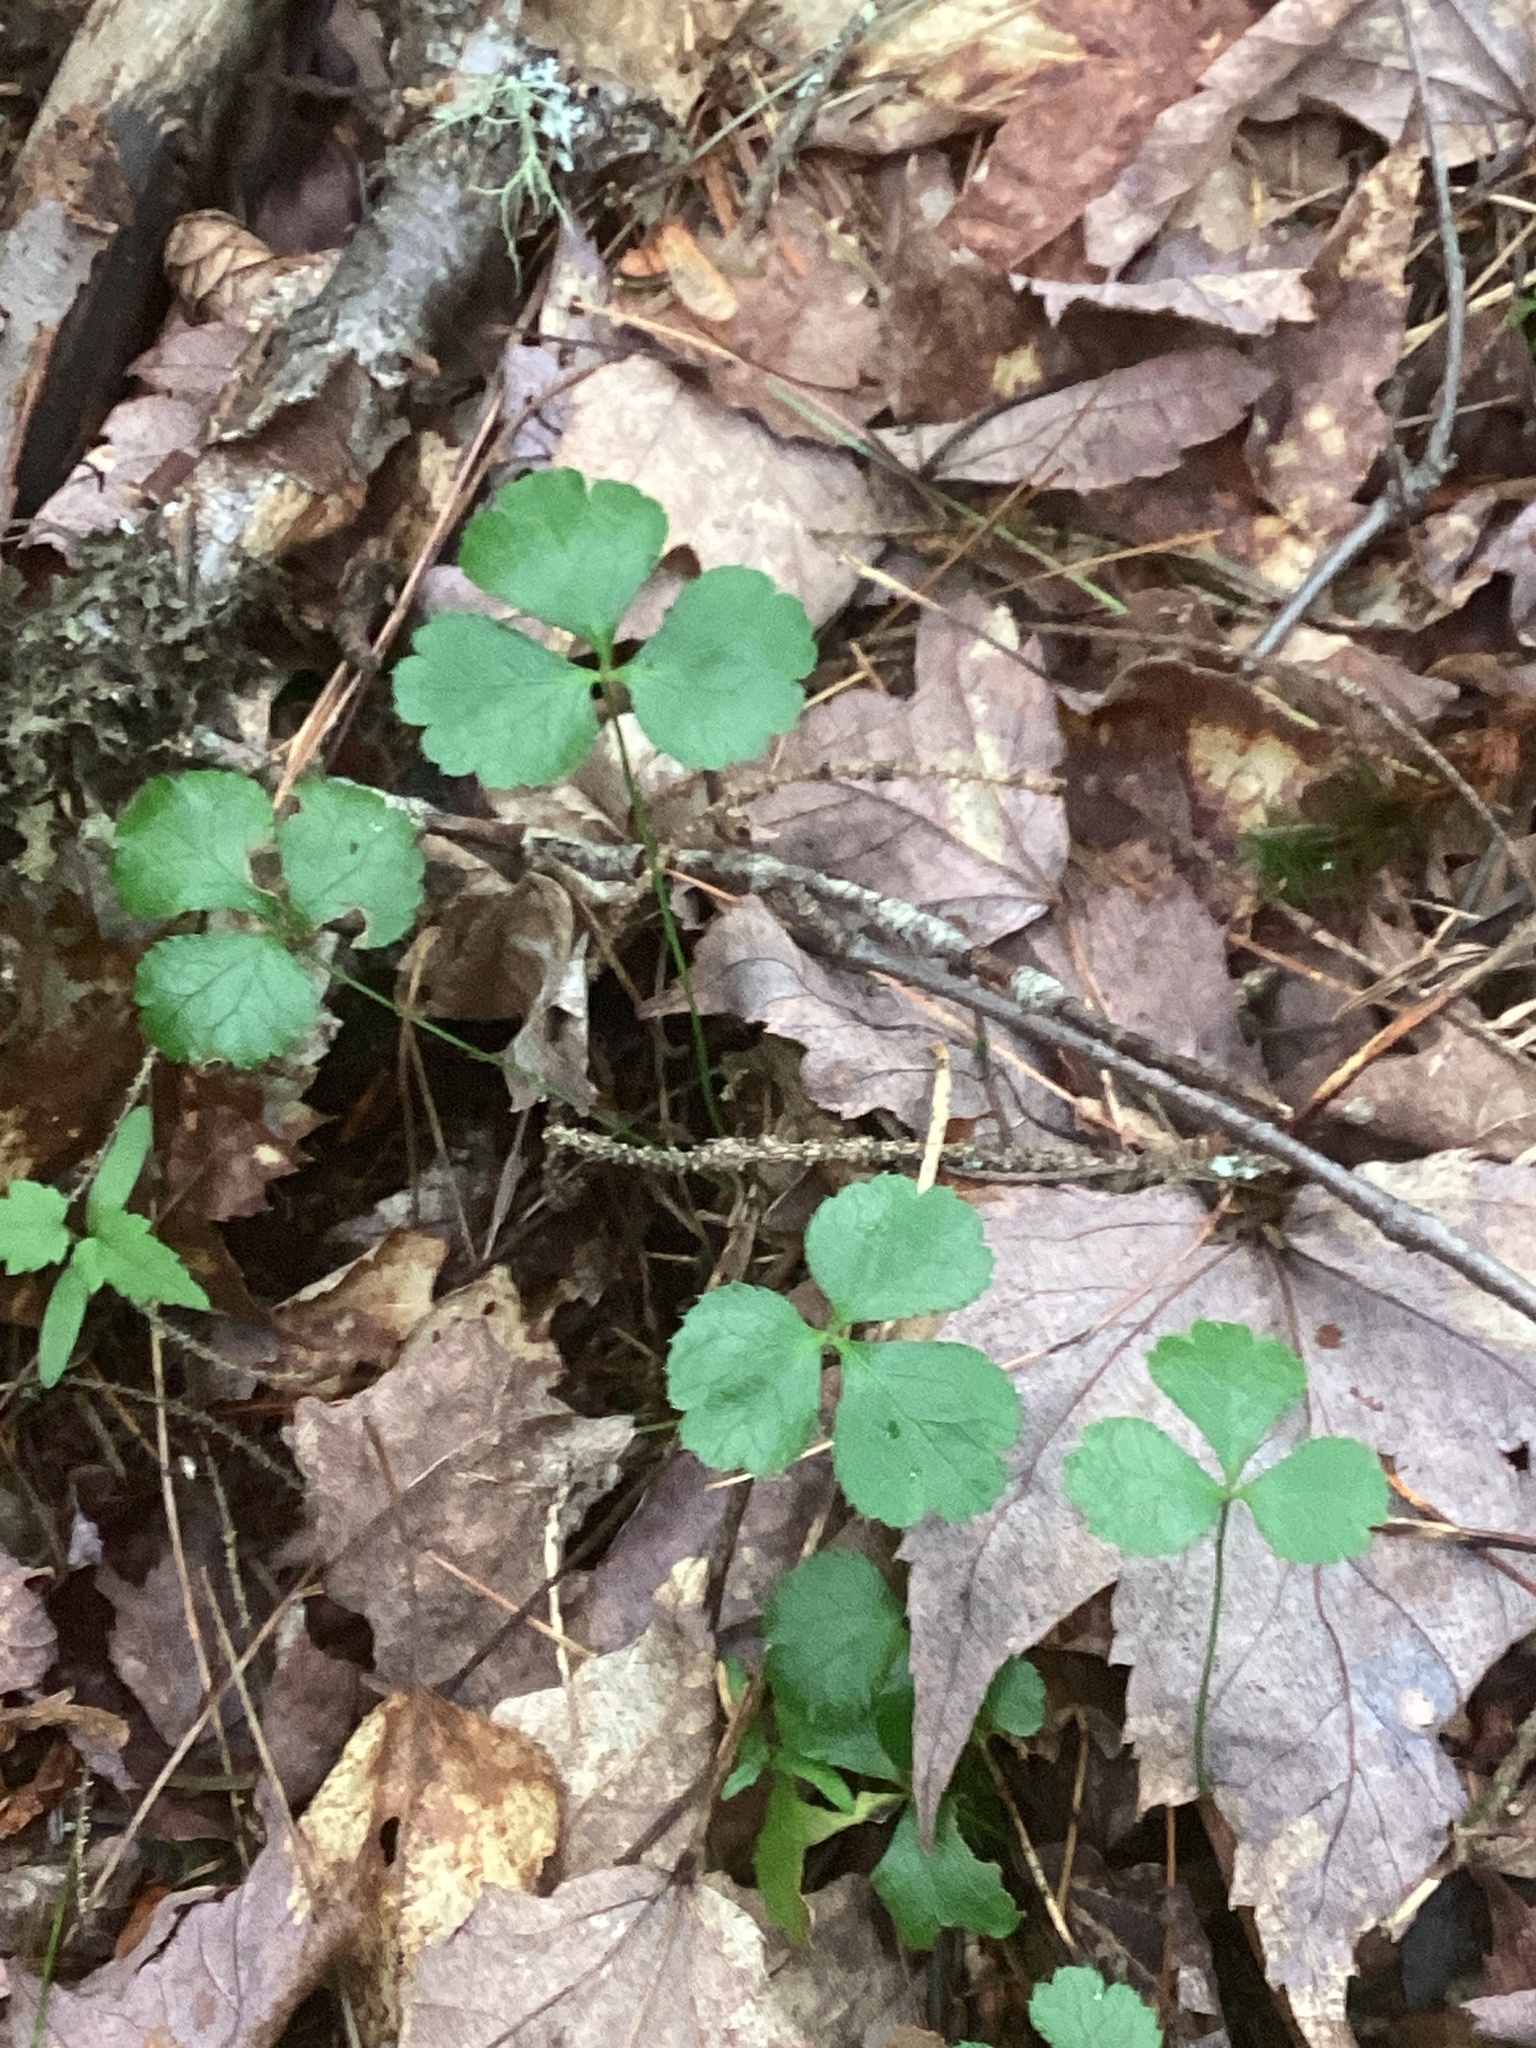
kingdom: Plantae
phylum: Tracheophyta
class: Magnoliopsida
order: Ranunculales
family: Ranunculaceae
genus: Coptis
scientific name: Coptis trifolia
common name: Canker-root
